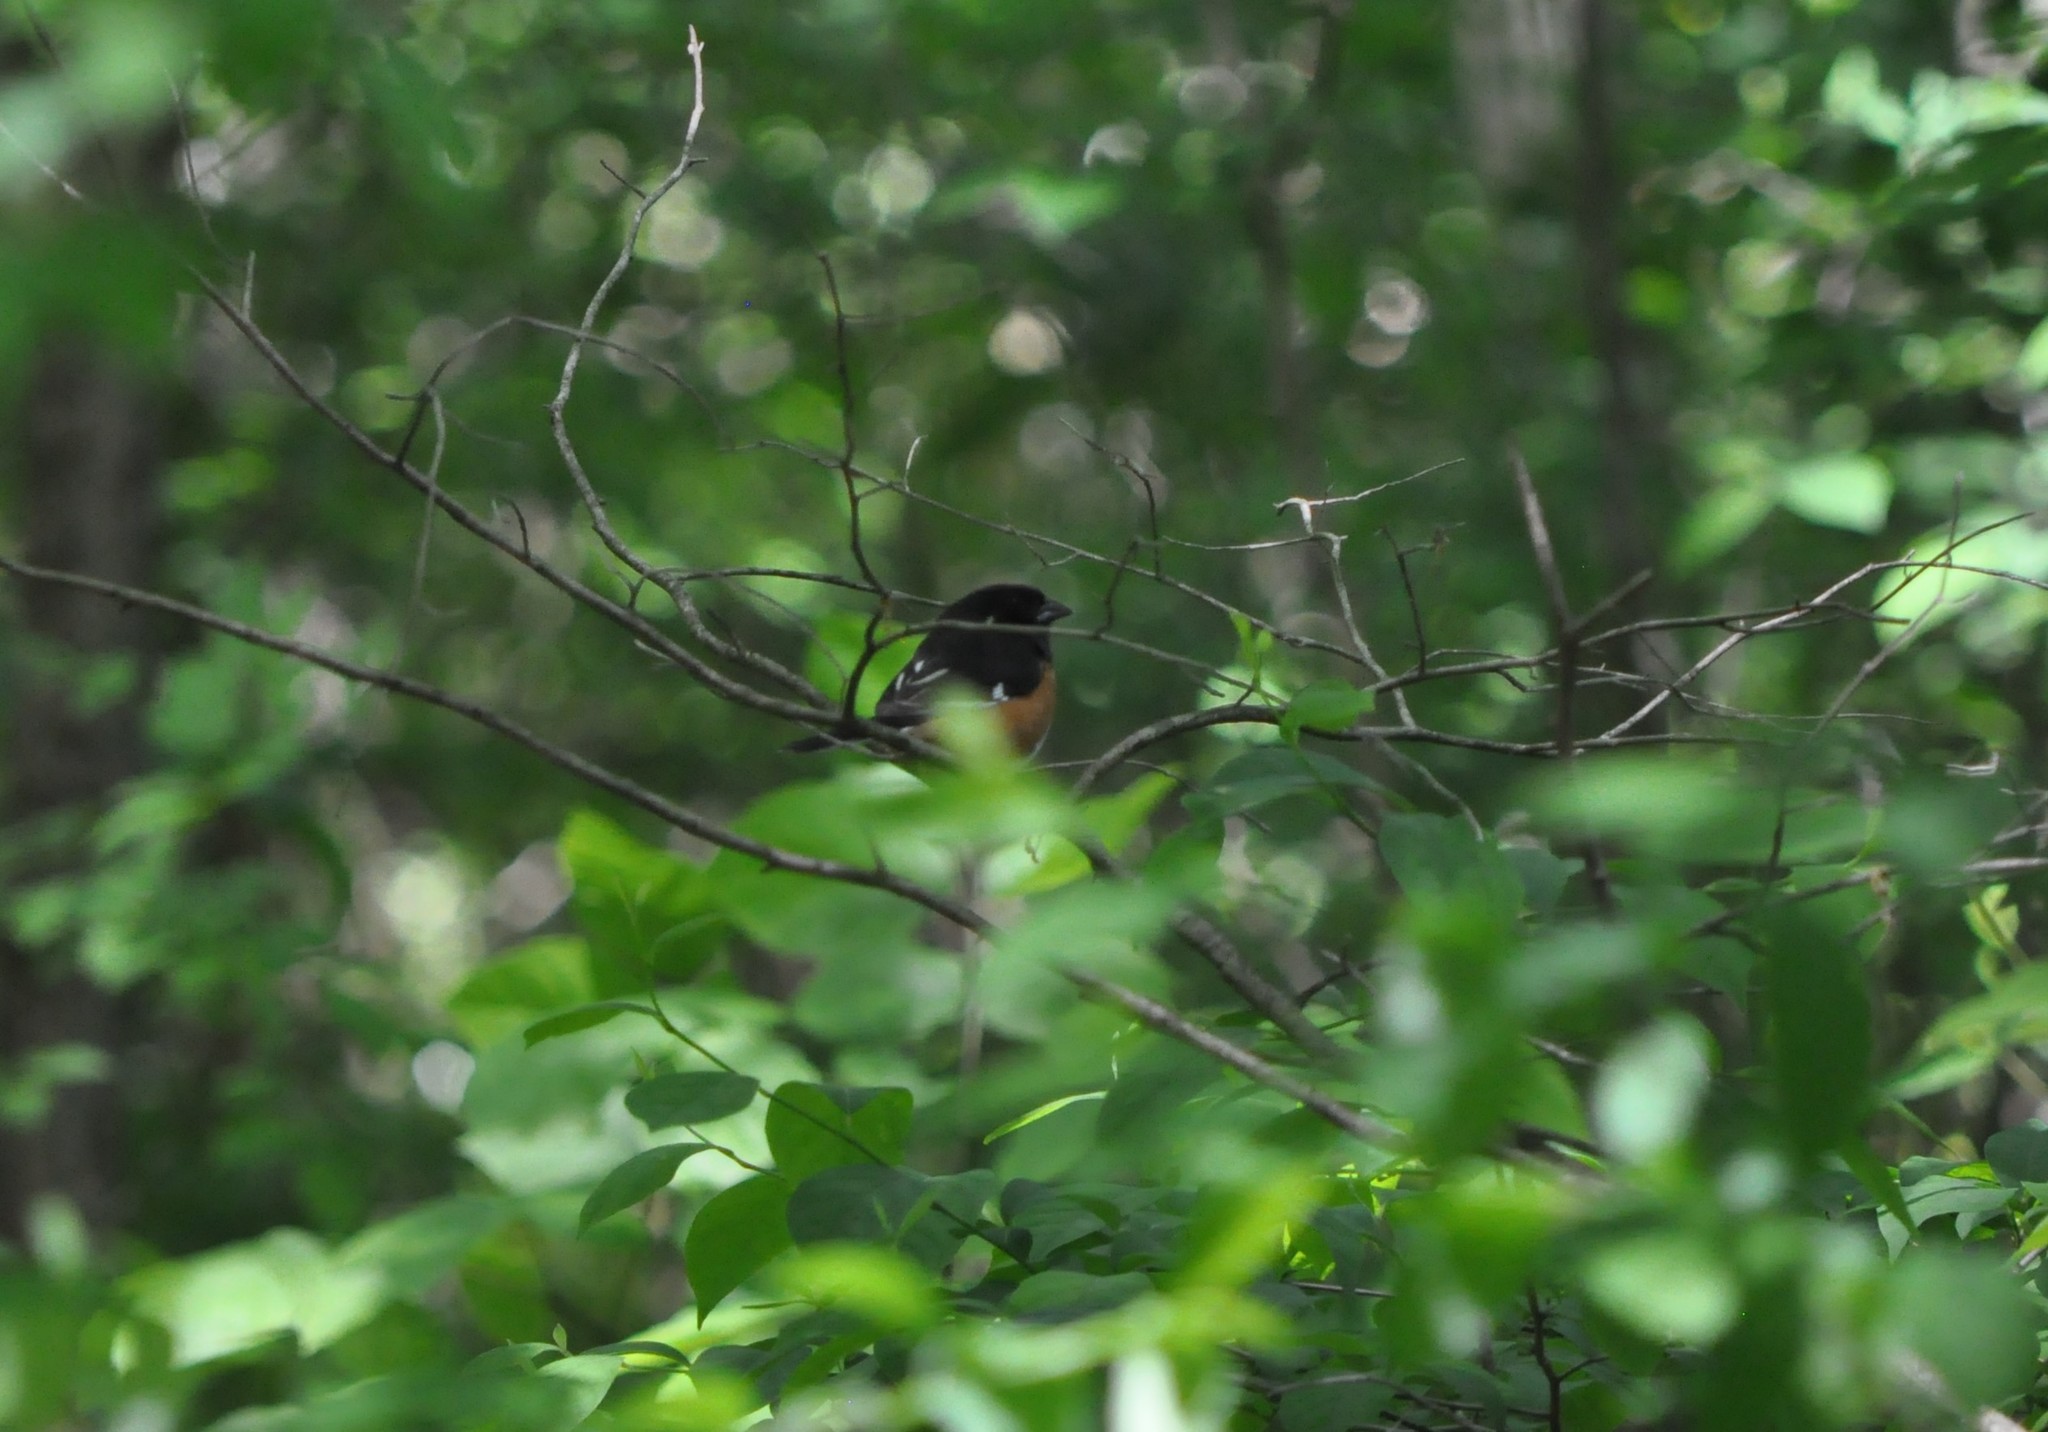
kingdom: Animalia
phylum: Chordata
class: Aves
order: Passeriformes
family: Passerellidae
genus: Pipilo
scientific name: Pipilo erythrophthalmus
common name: Eastern towhee
